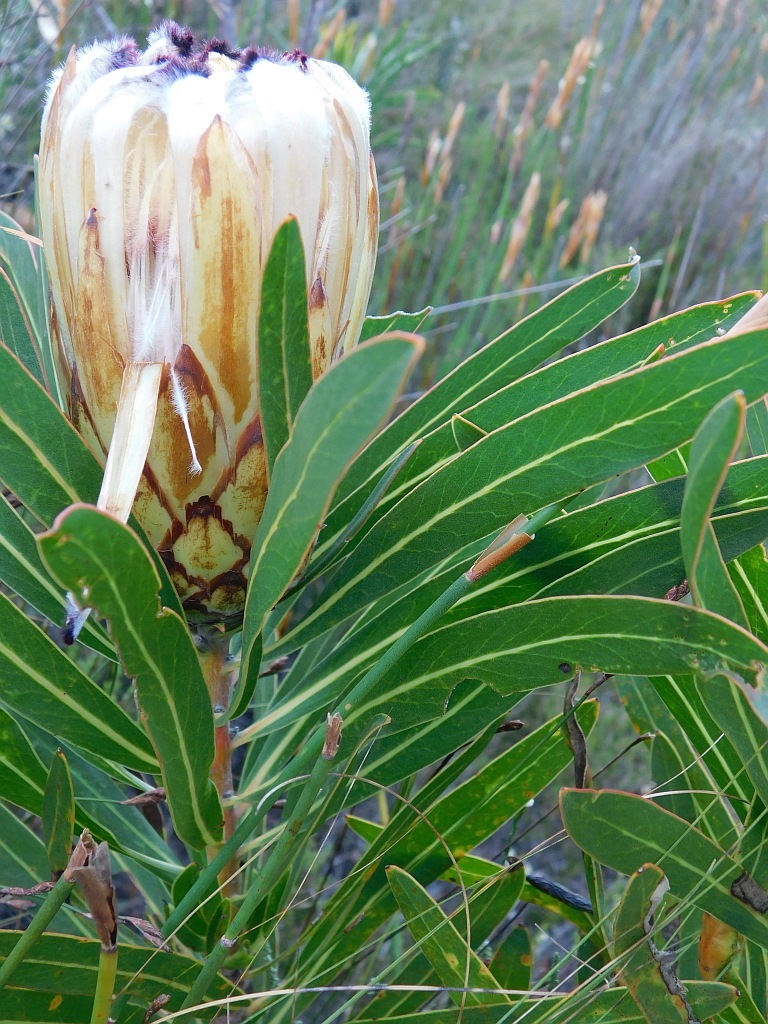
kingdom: Plantae
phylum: Tracheophyta
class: Magnoliopsida
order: Proteales
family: Proteaceae
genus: Protea
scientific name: Protea neriifolia
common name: Blue sugarbush
